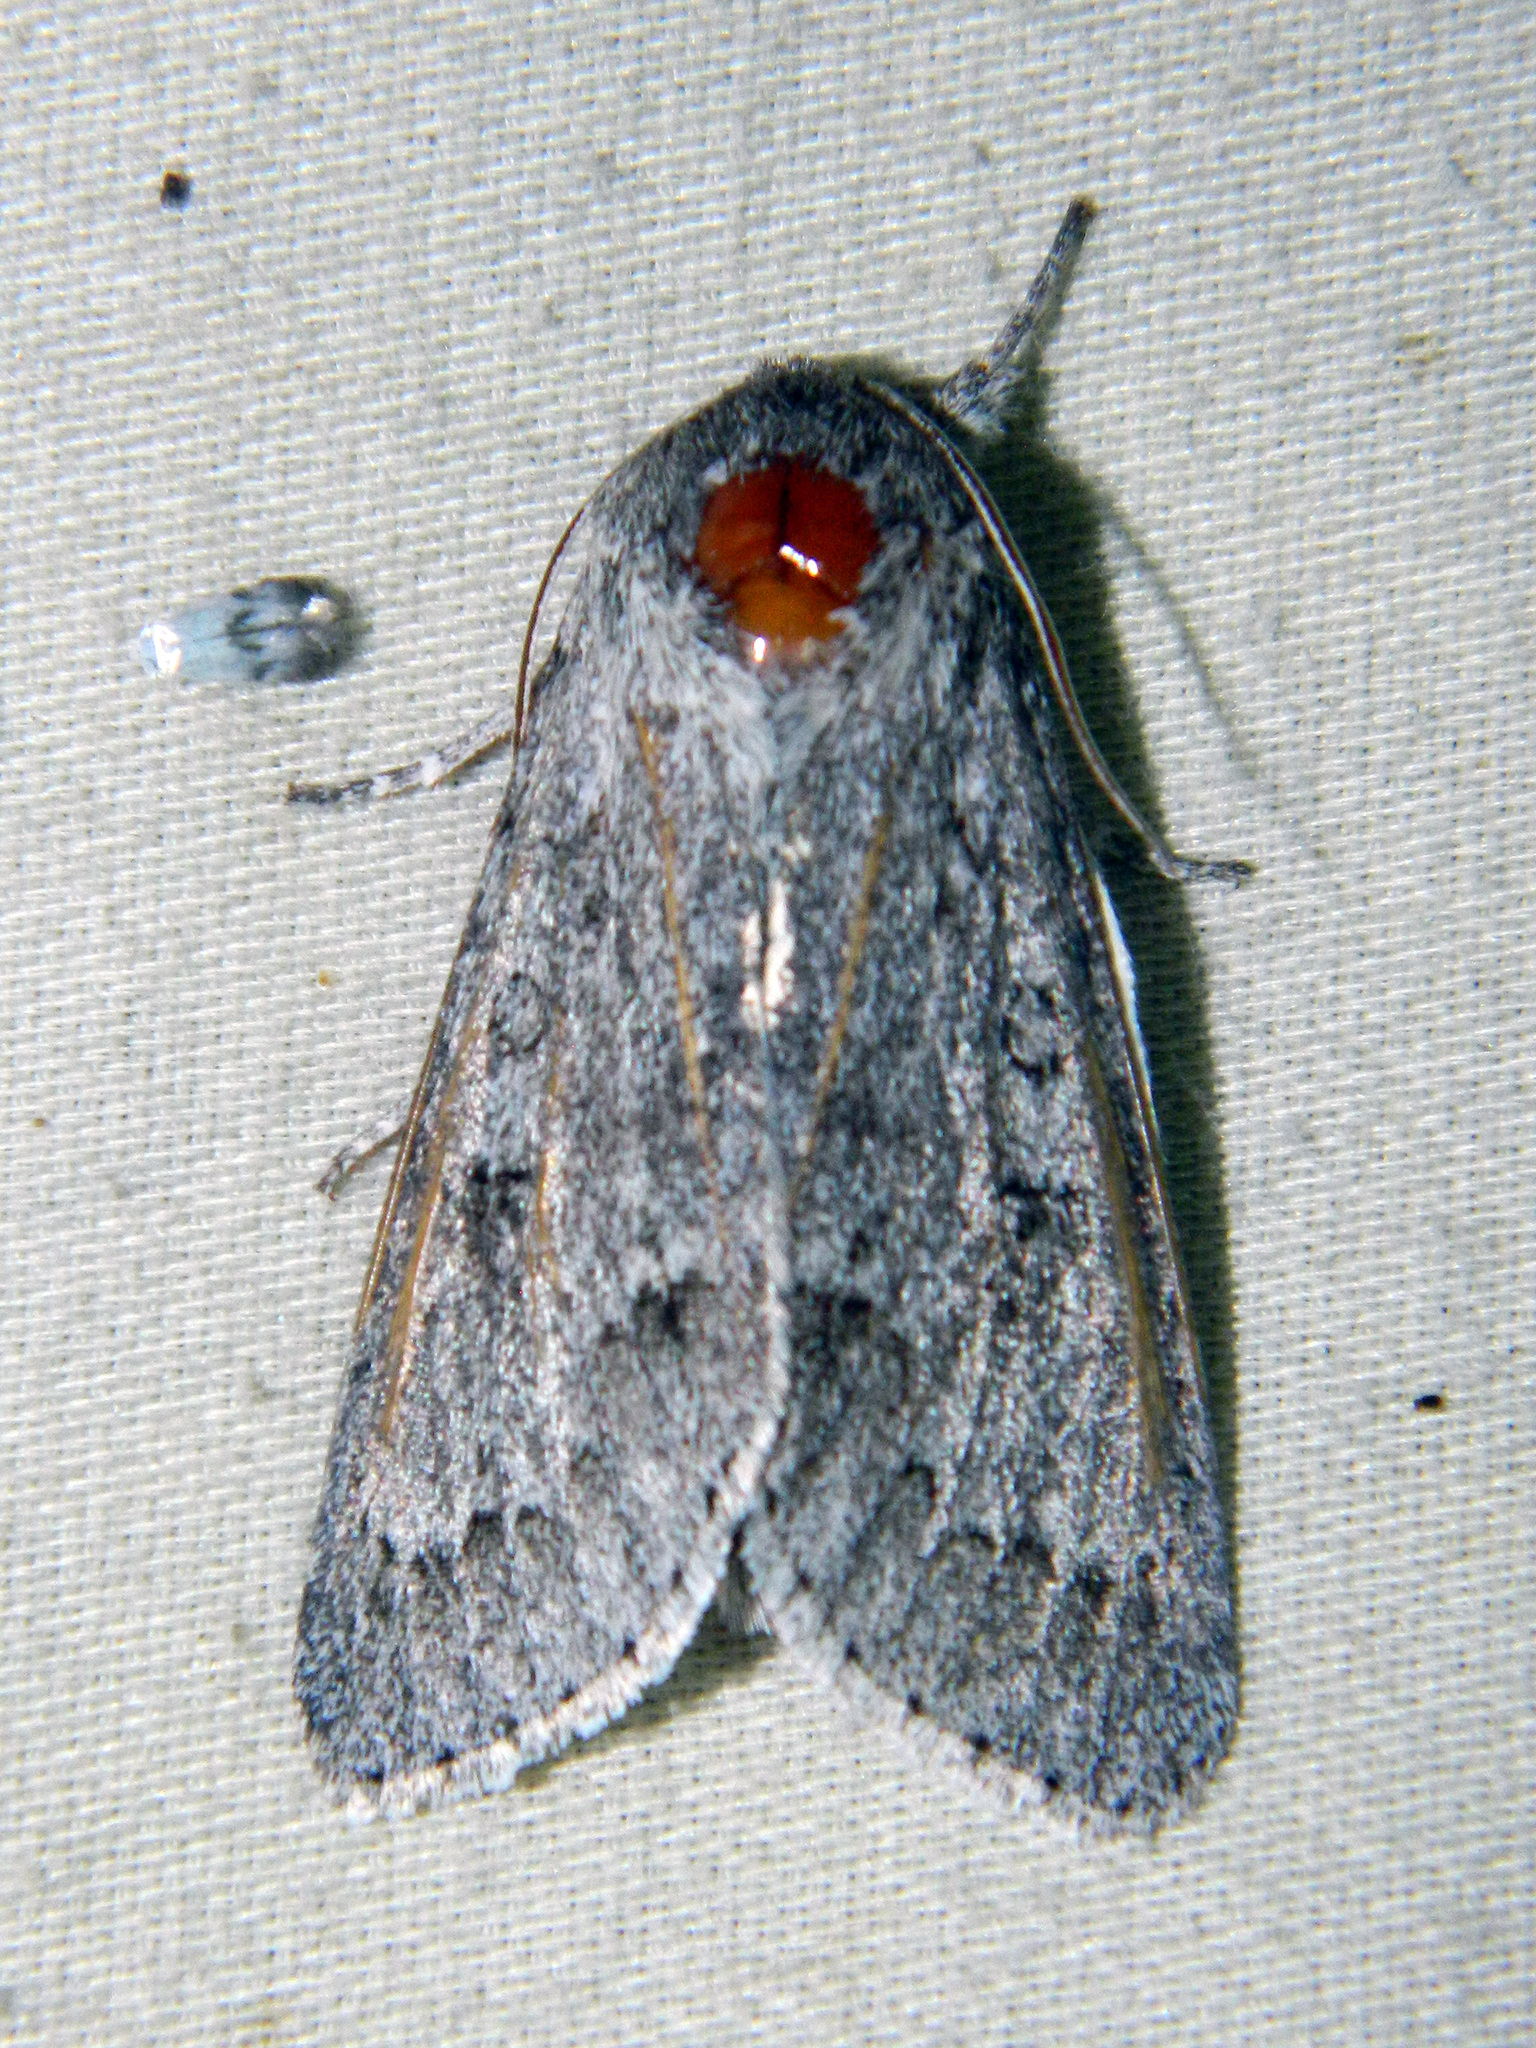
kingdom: Animalia
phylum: Arthropoda
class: Insecta
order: Lepidoptera
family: Noctuidae
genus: Acronicta
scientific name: Acronicta insita
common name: Large gray dagger
